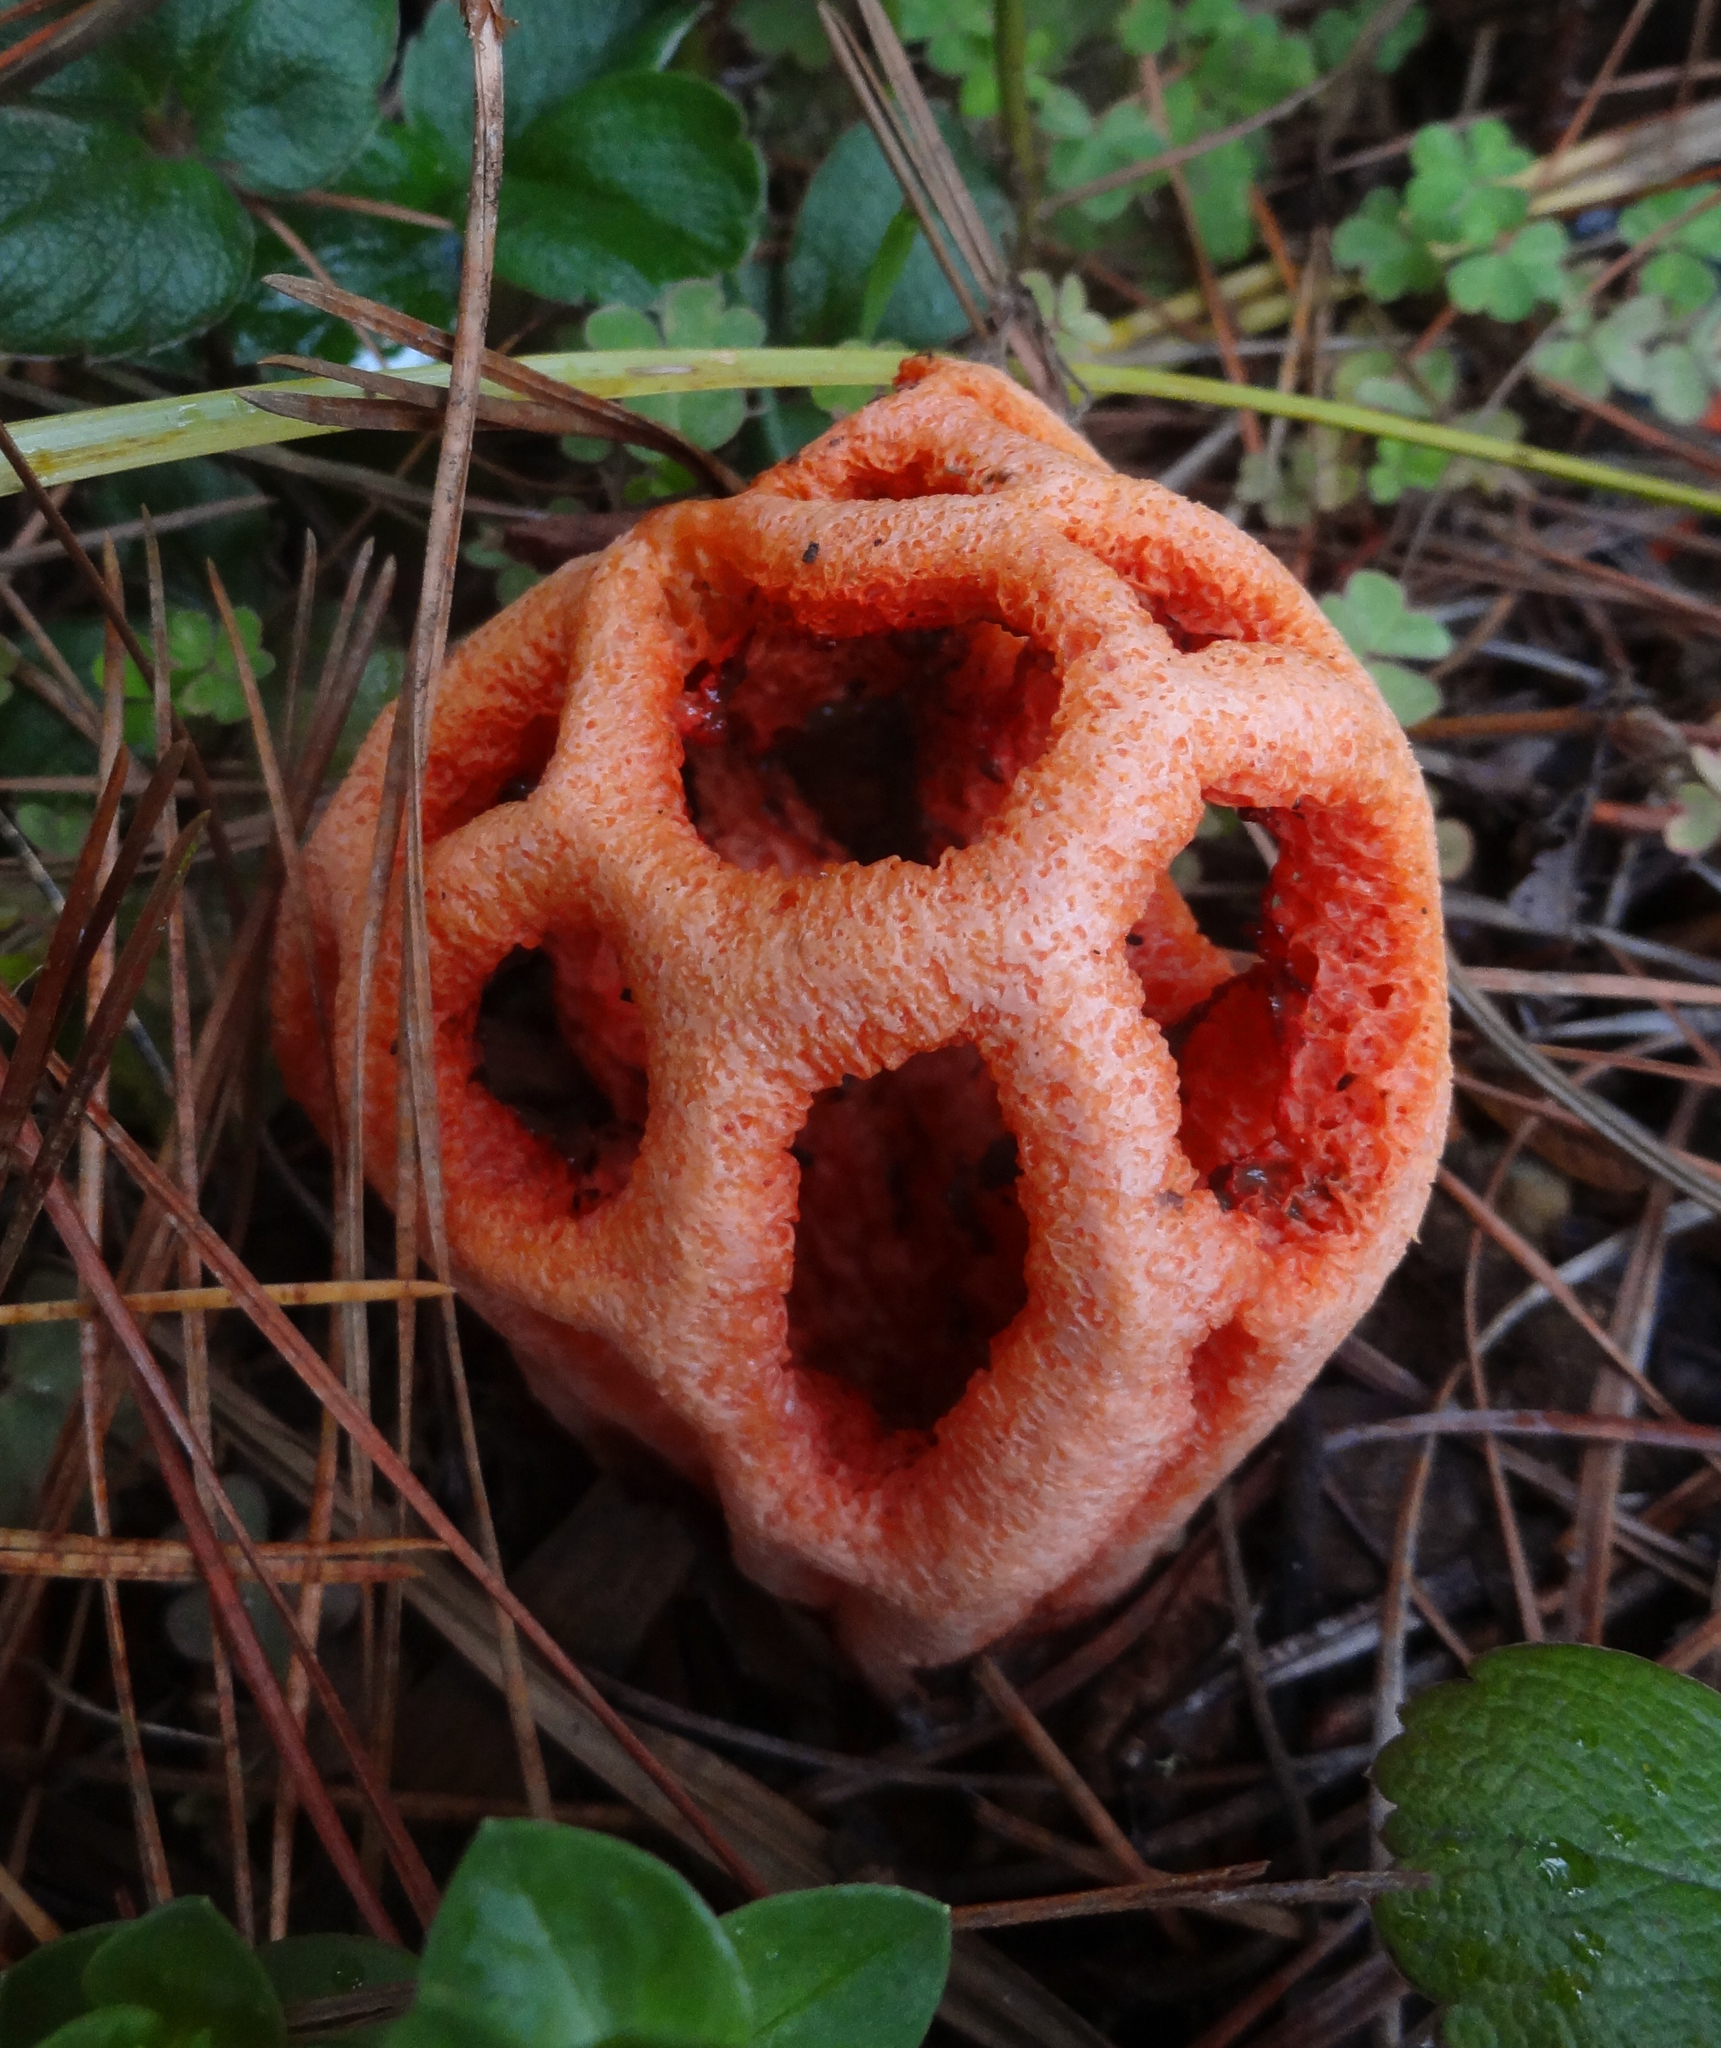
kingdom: Fungi
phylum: Basidiomycota
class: Agaricomycetes
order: Phallales
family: Phallaceae
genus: Clathrus
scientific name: Clathrus ruber
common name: Red cage
